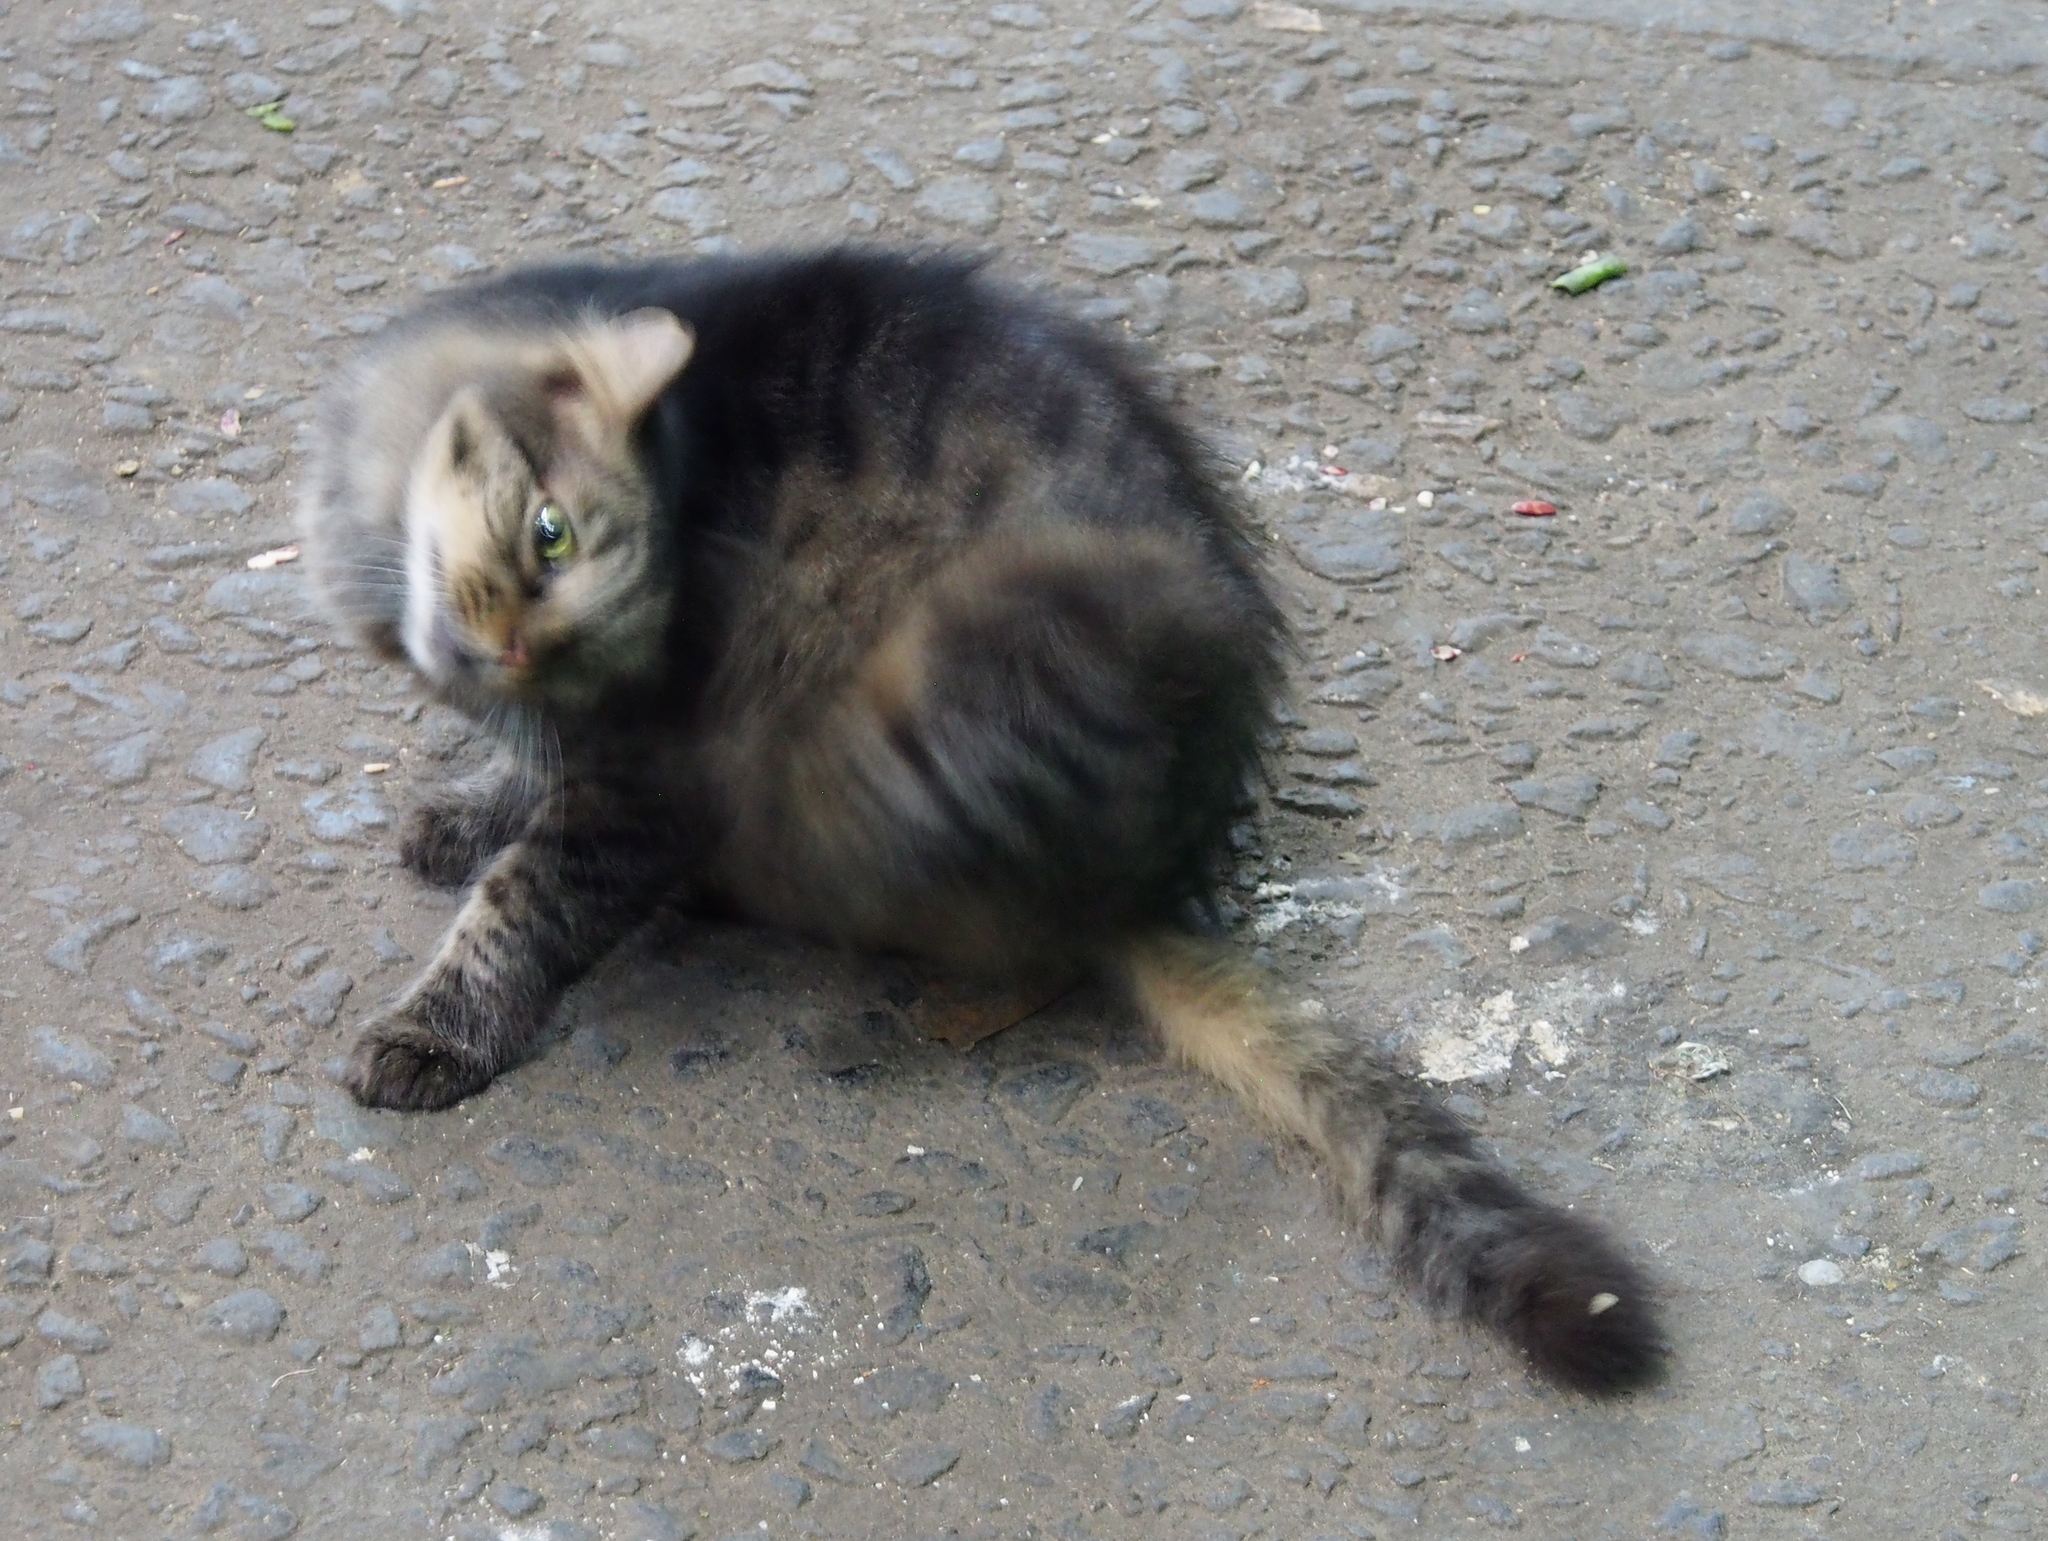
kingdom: Animalia
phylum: Chordata
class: Mammalia
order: Carnivora
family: Felidae
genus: Felis
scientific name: Felis catus
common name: Domestic cat
